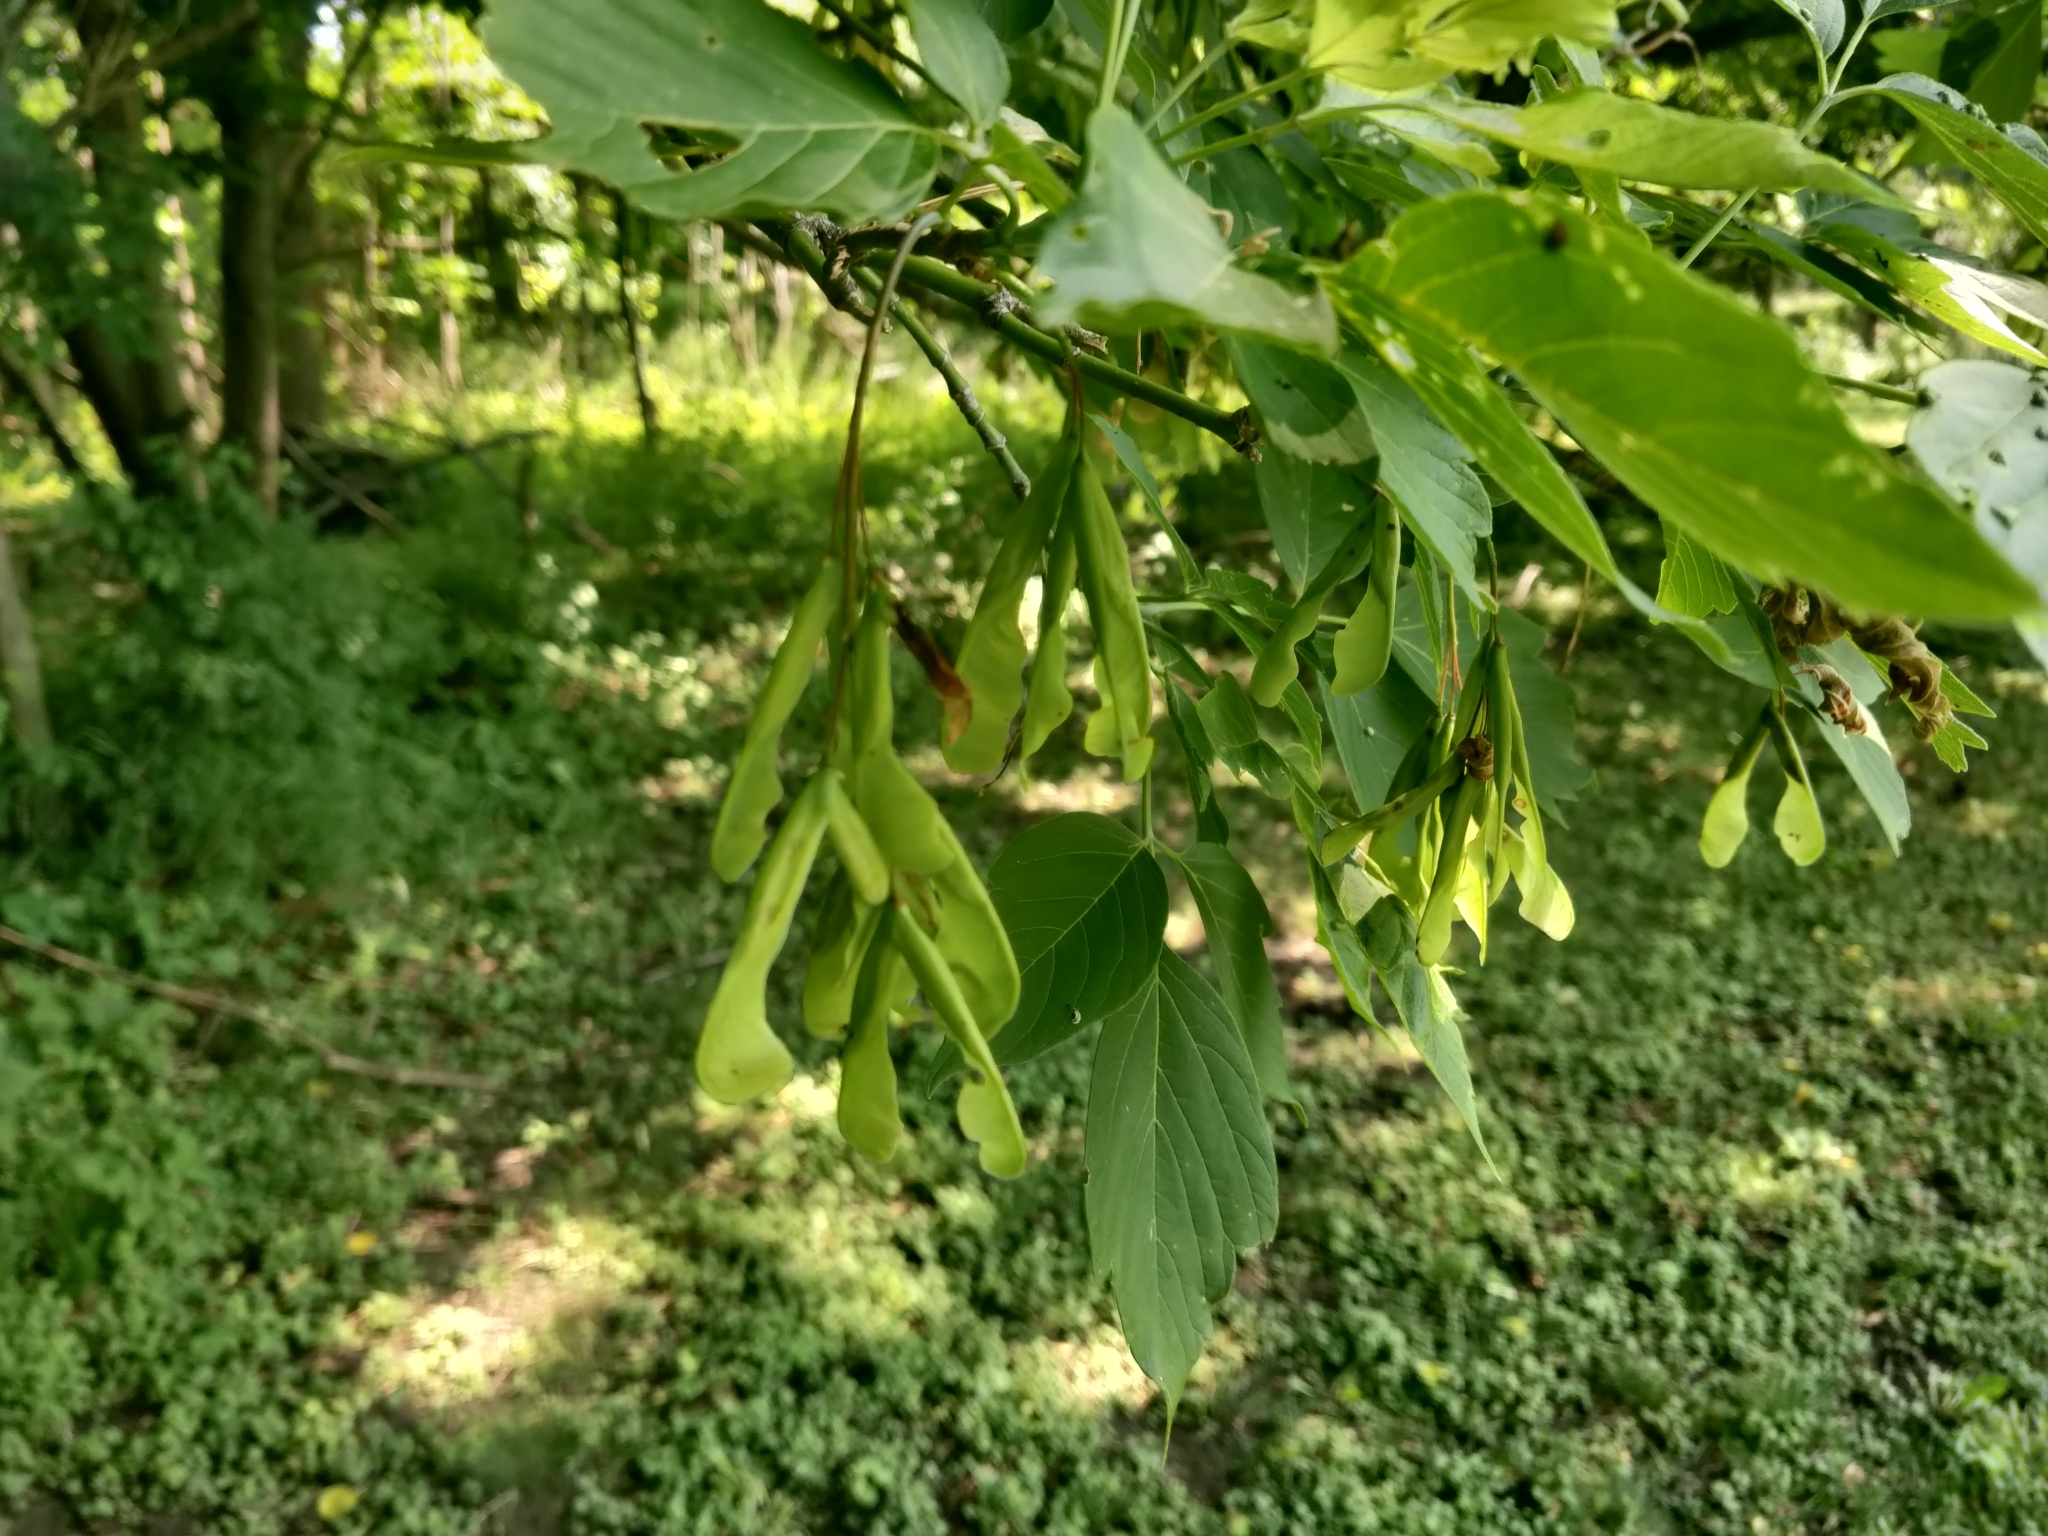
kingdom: Plantae
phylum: Tracheophyta
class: Magnoliopsida
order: Sapindales
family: Sapindaceae
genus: Acer
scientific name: Acer negundo
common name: Ashleaf maple
